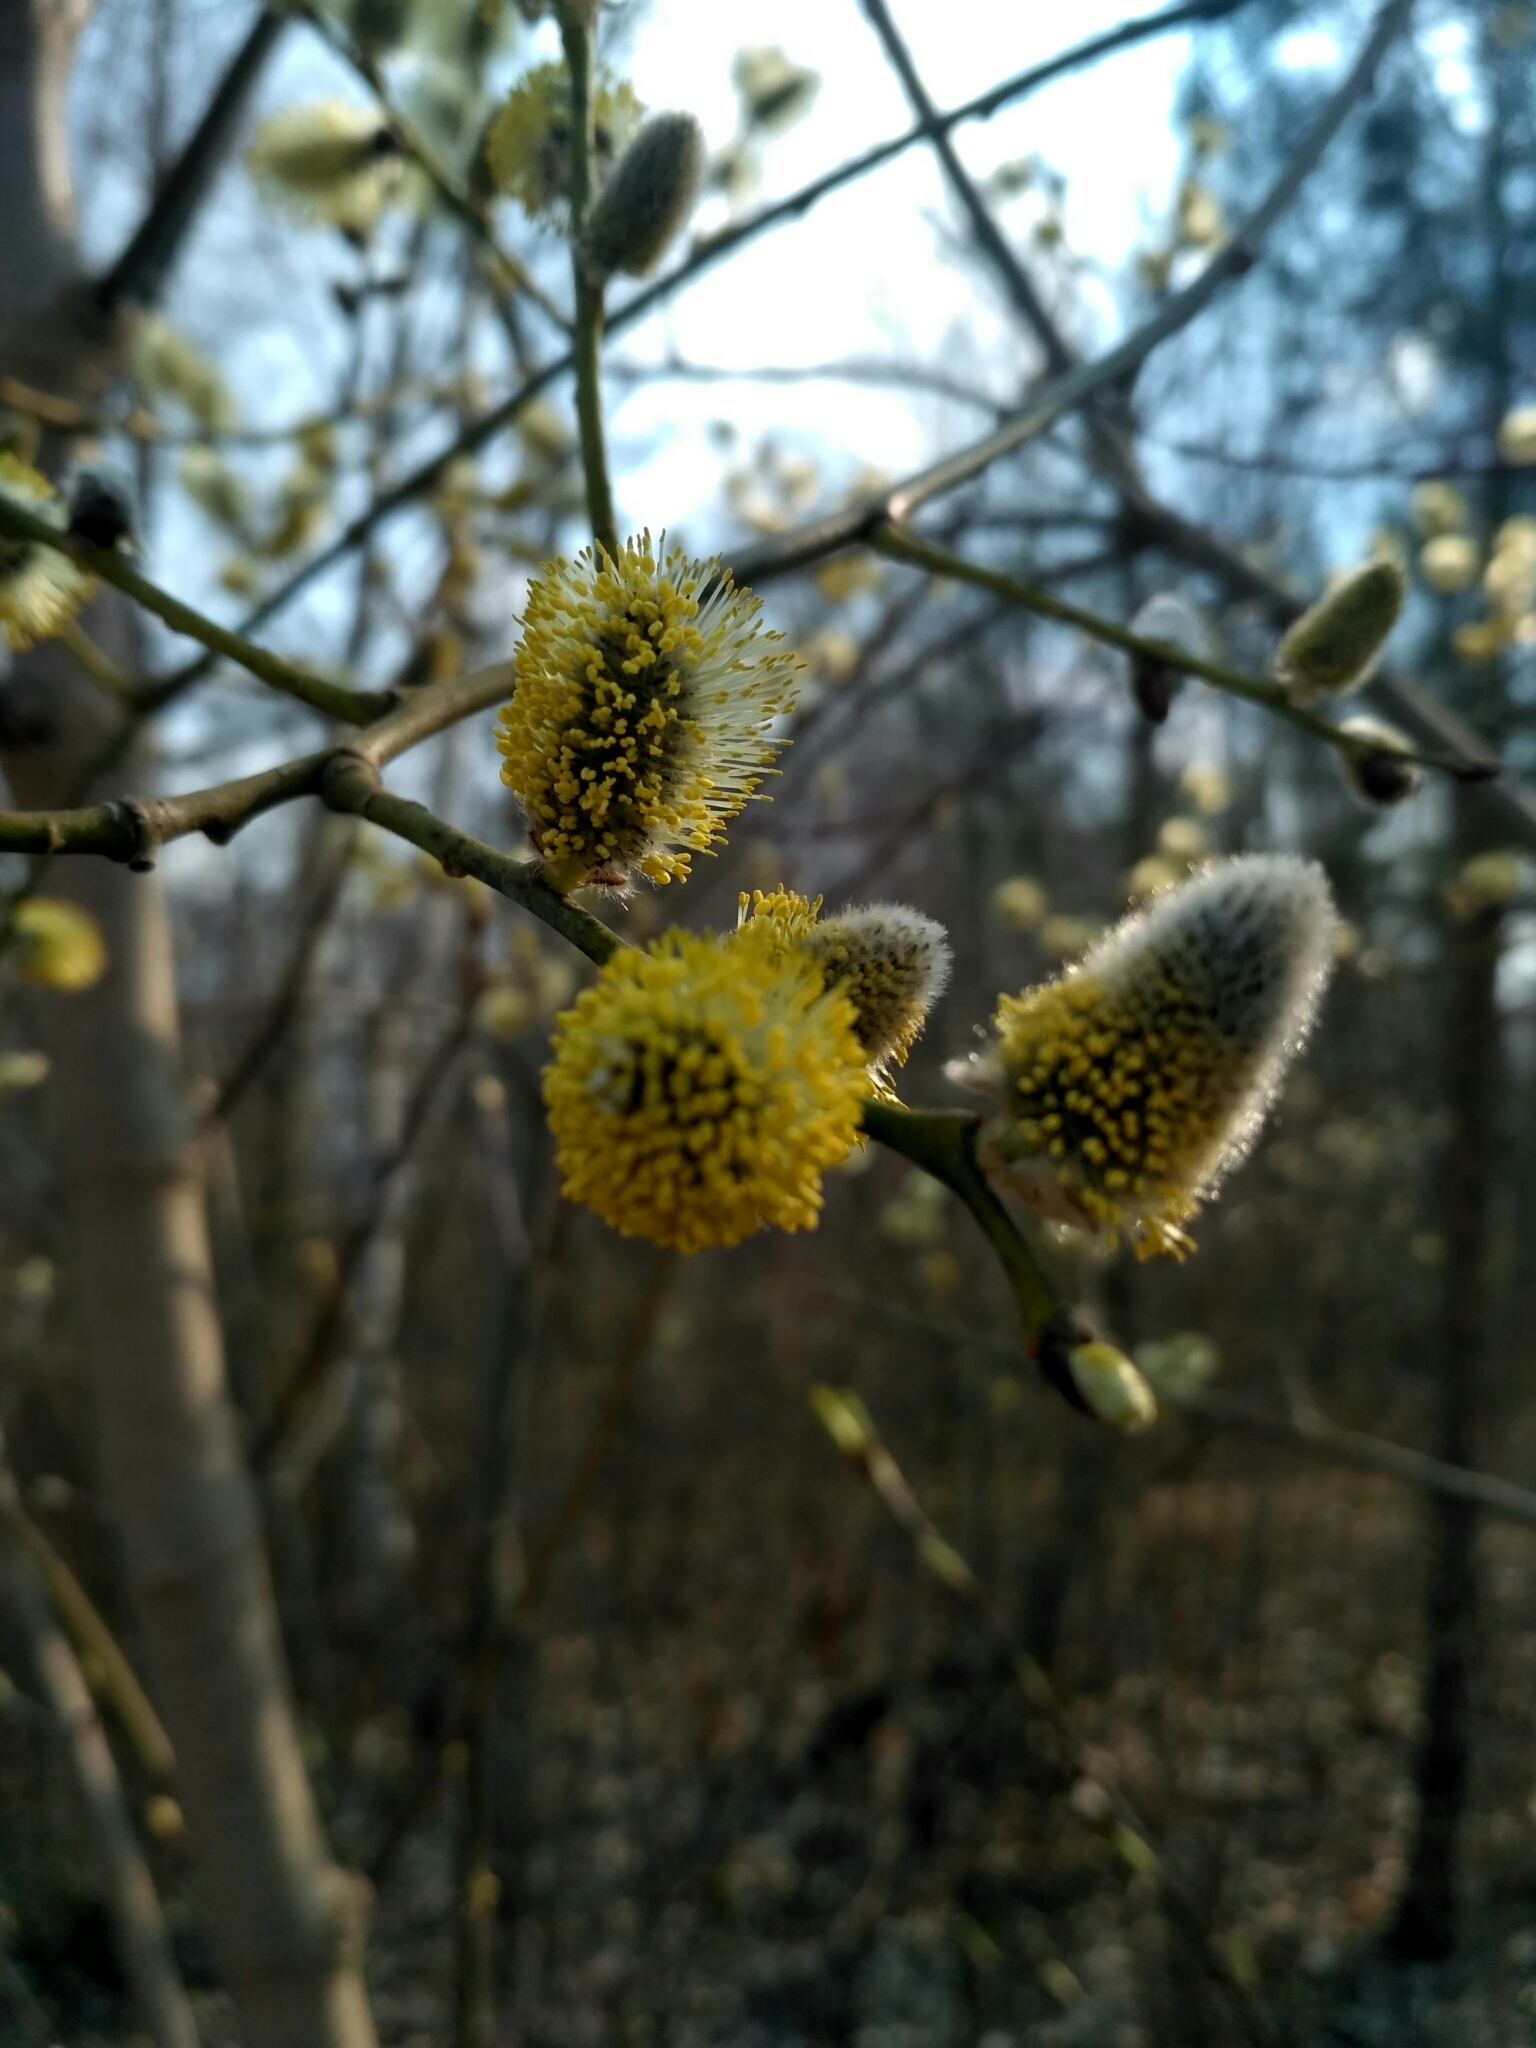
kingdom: Plantae
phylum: Tracheophyta
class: Magnoliopsida
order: Malpighiales
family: Salicaceae
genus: Salix
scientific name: Salix caprea
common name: Goat willow
